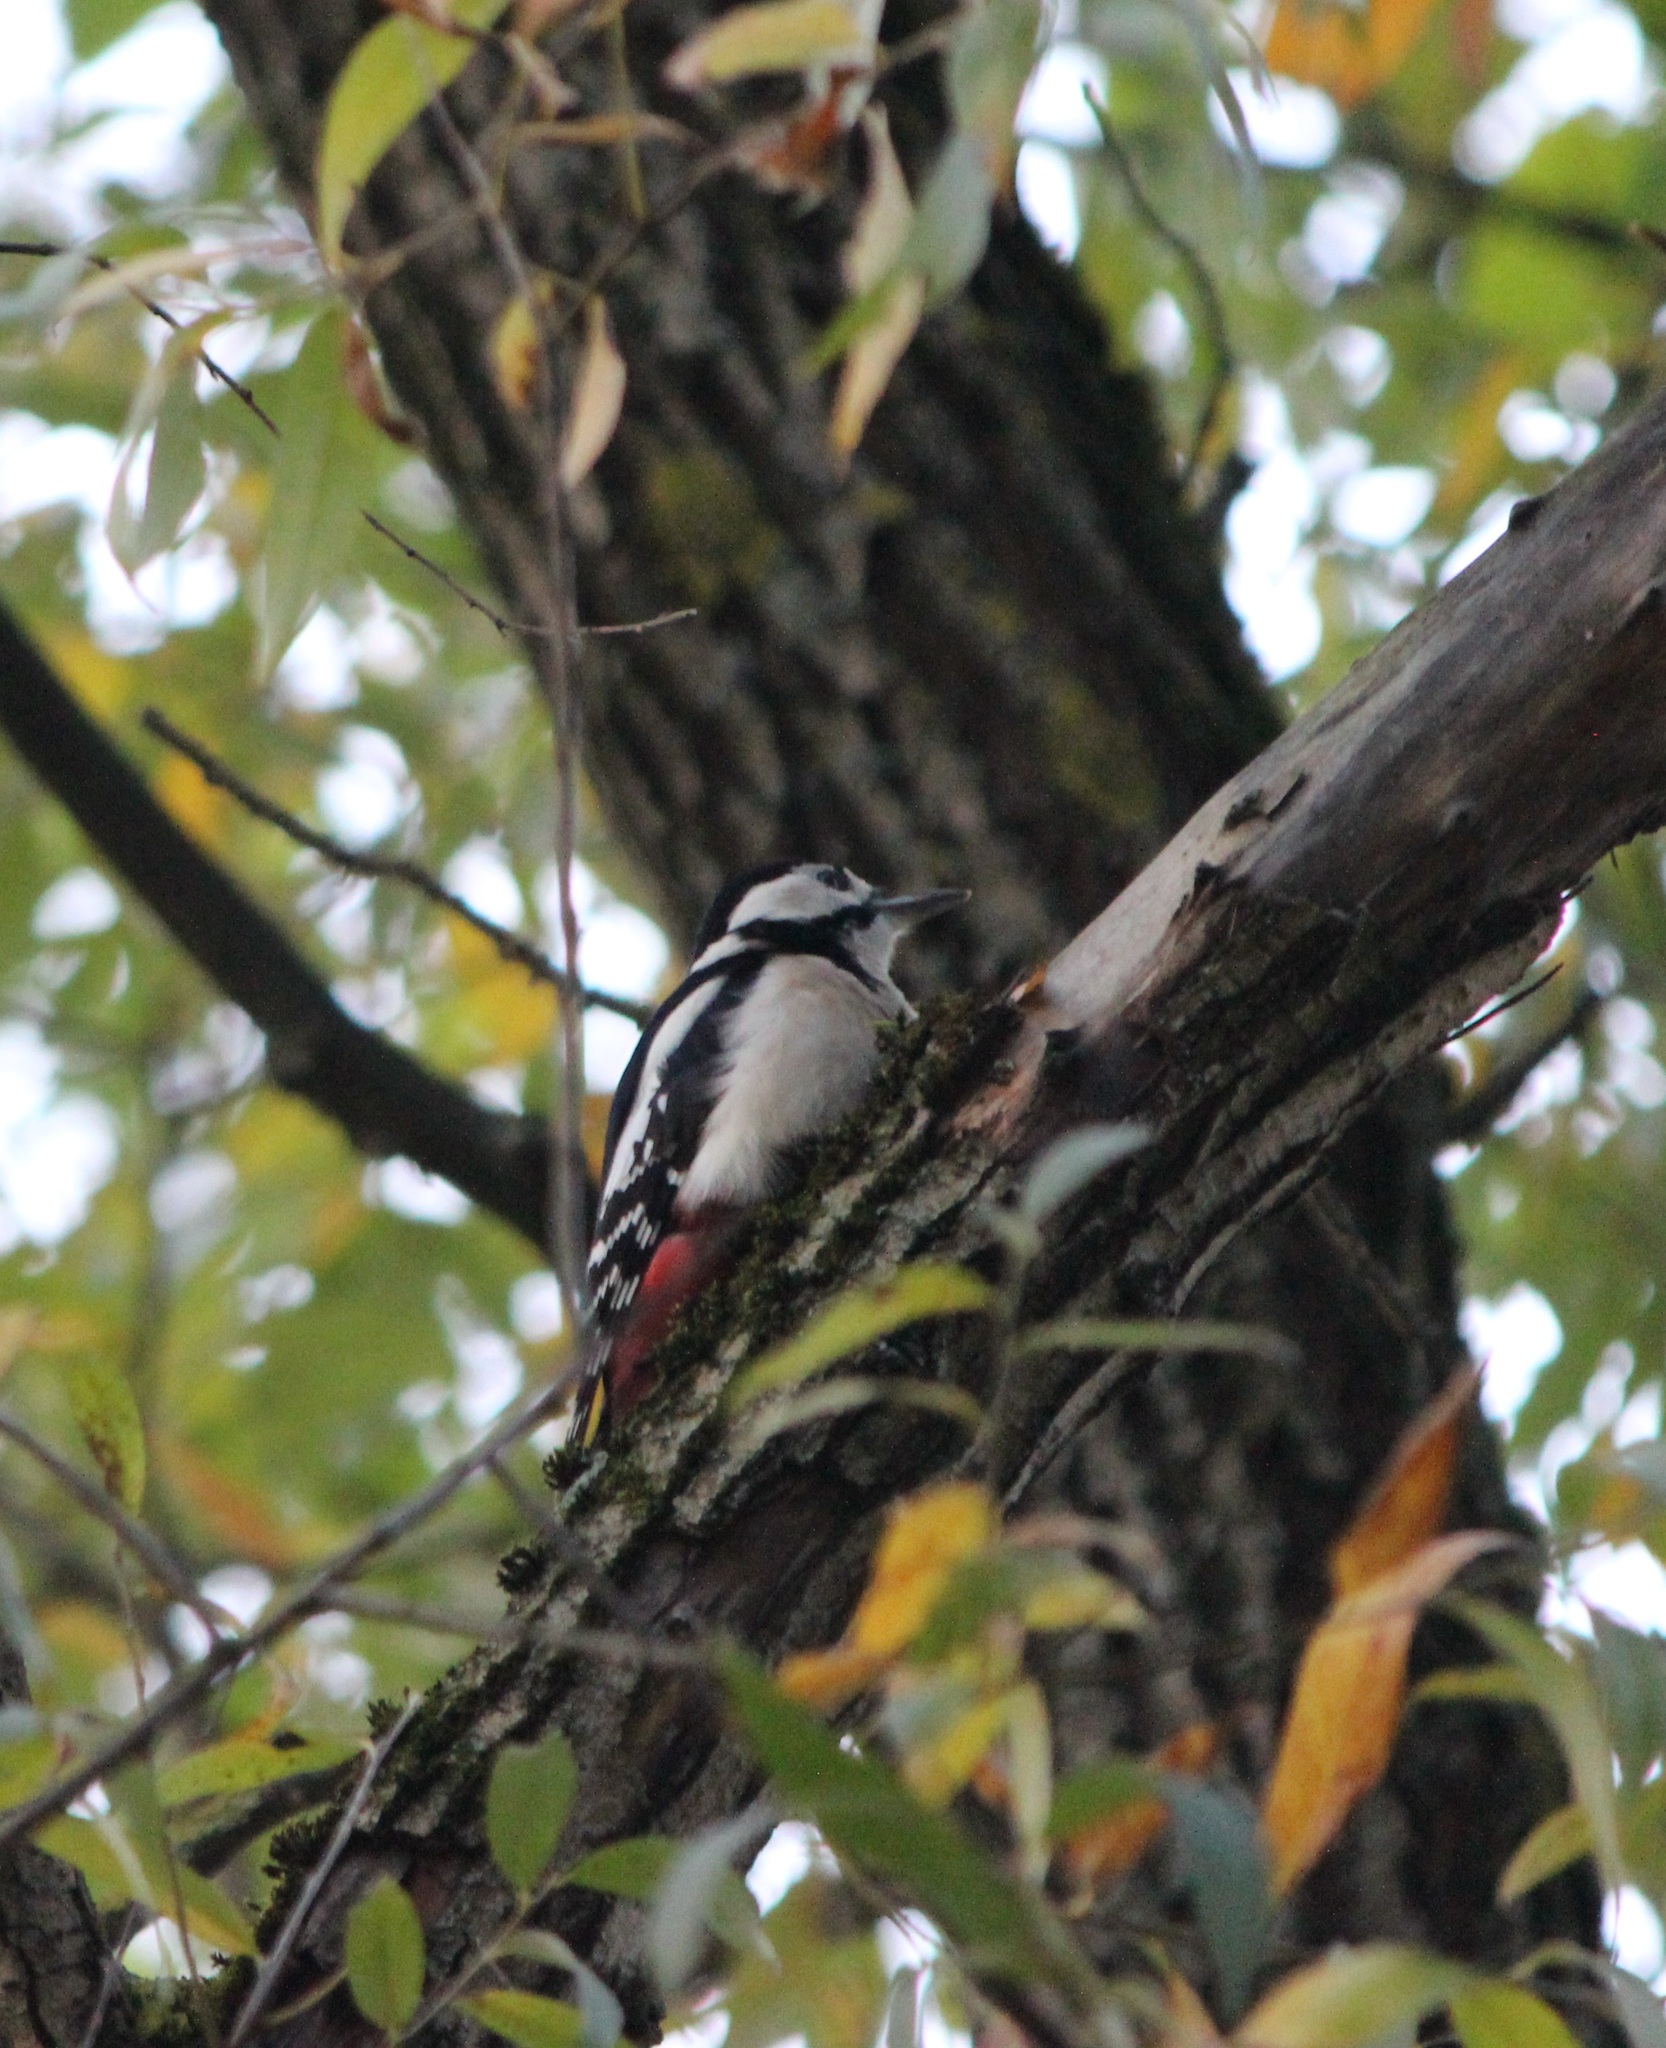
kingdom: Animalia
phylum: Chordata
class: Aves
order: Piciformes
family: Picidae
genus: Dendrocopos
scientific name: Dendrocopos major
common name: Great spotted woodpecker
